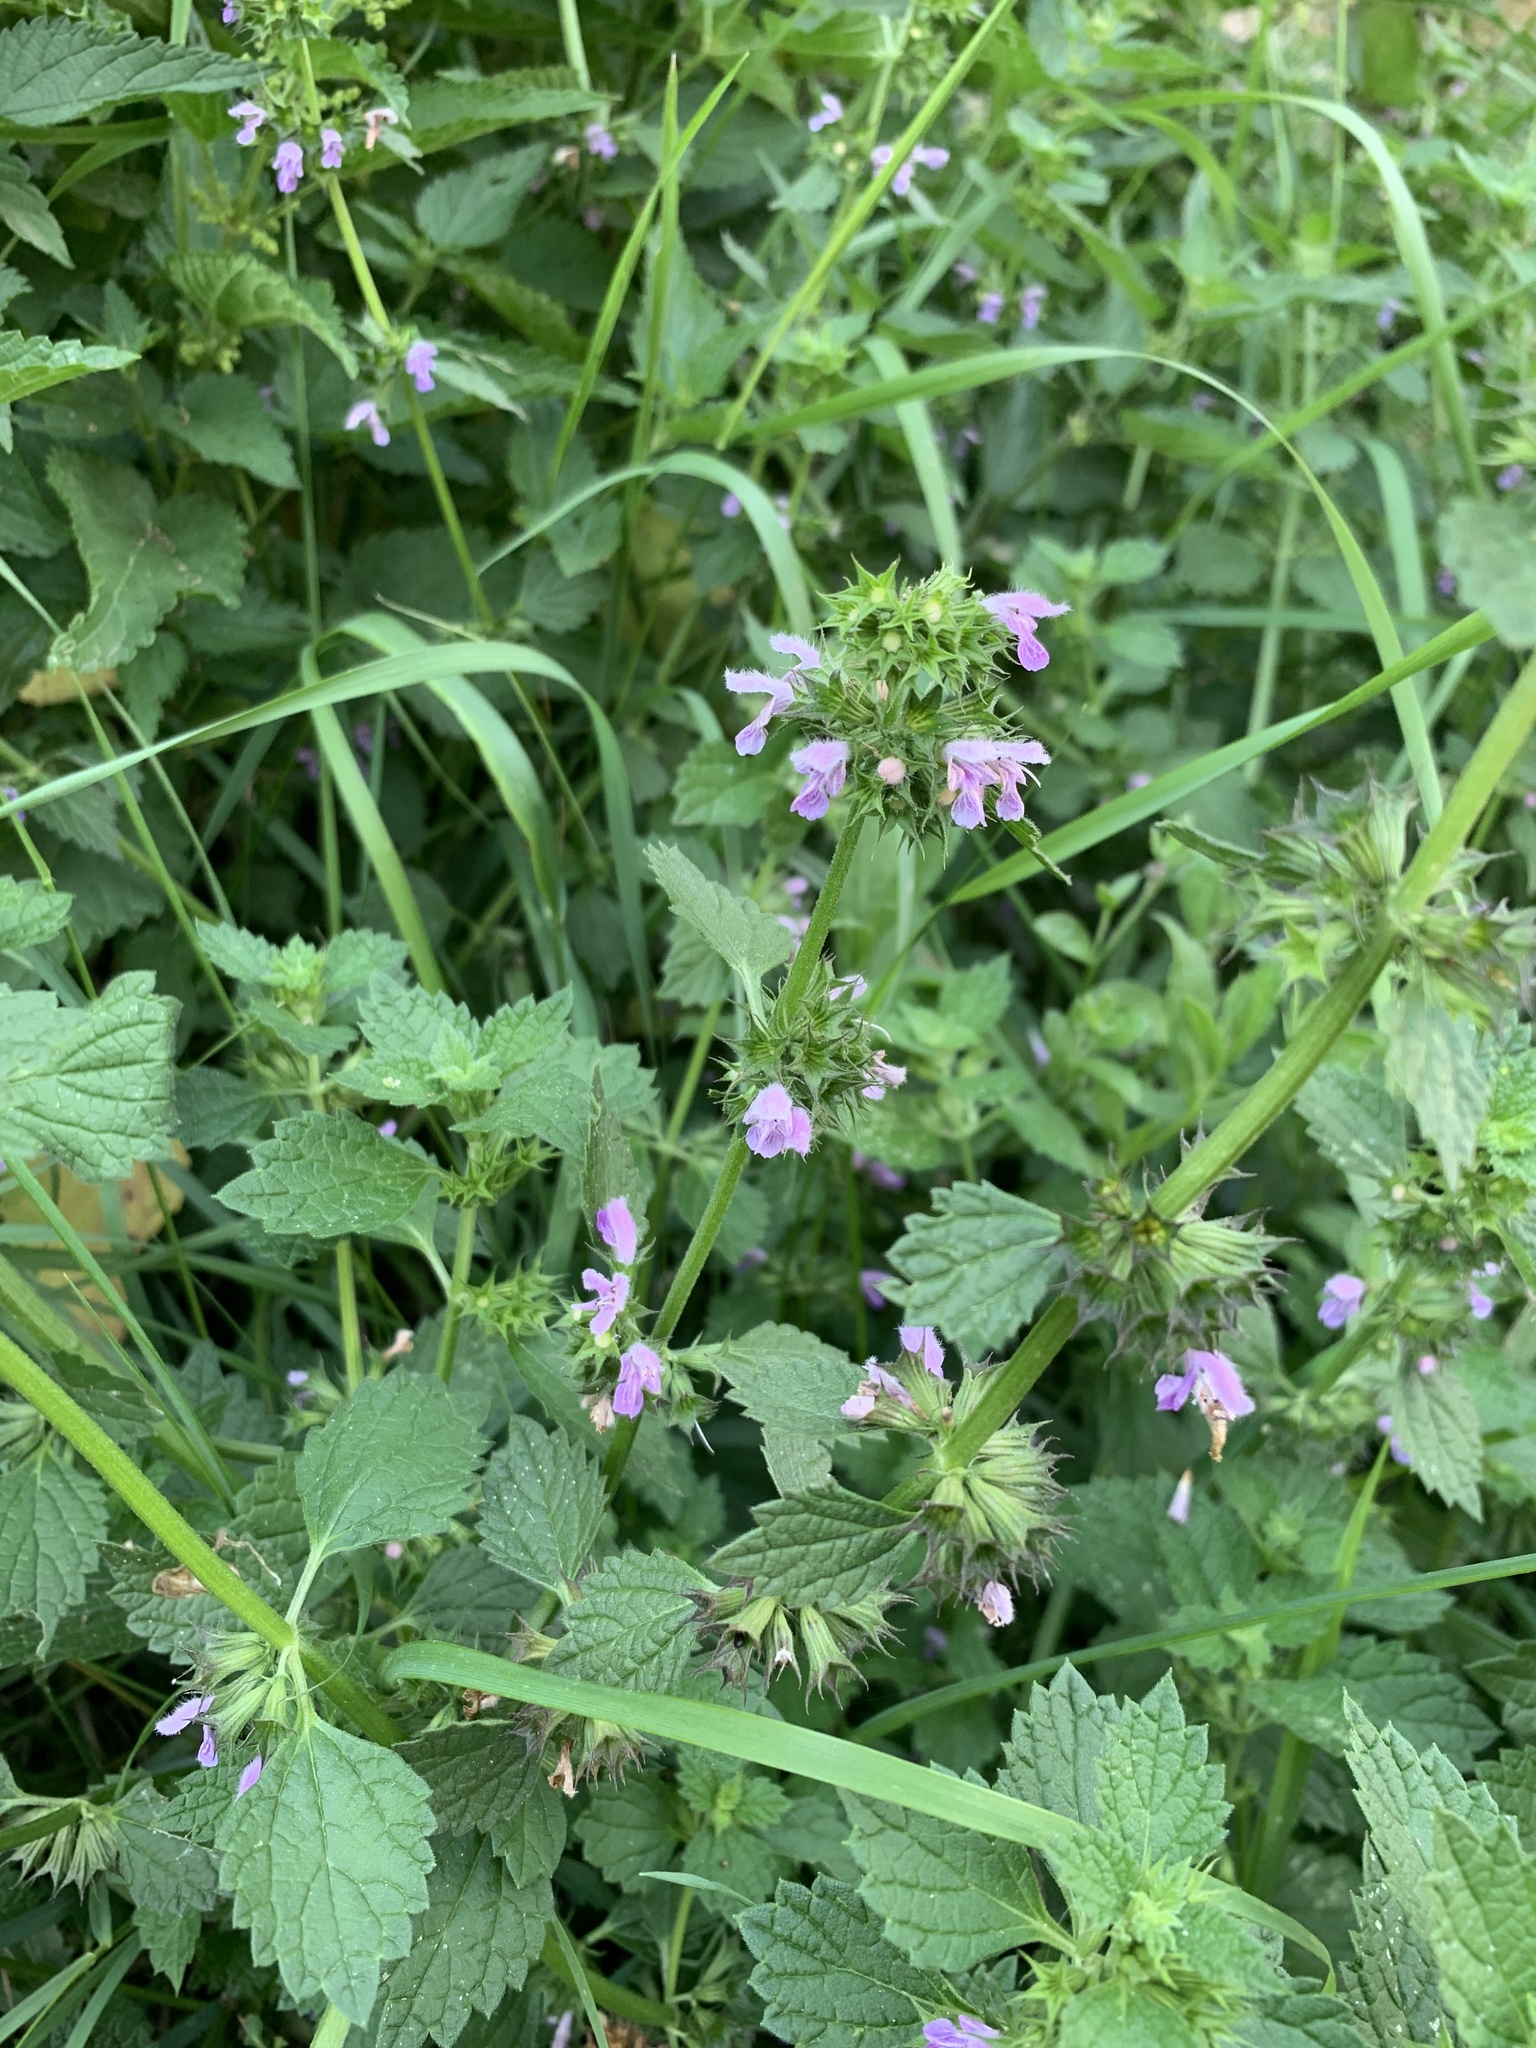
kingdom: Plantae
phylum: Tracheophyta
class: Magnoliopsida
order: Lamiales
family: Lamiaceae
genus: Ballota
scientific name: Ballota nigra
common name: Black horehound
